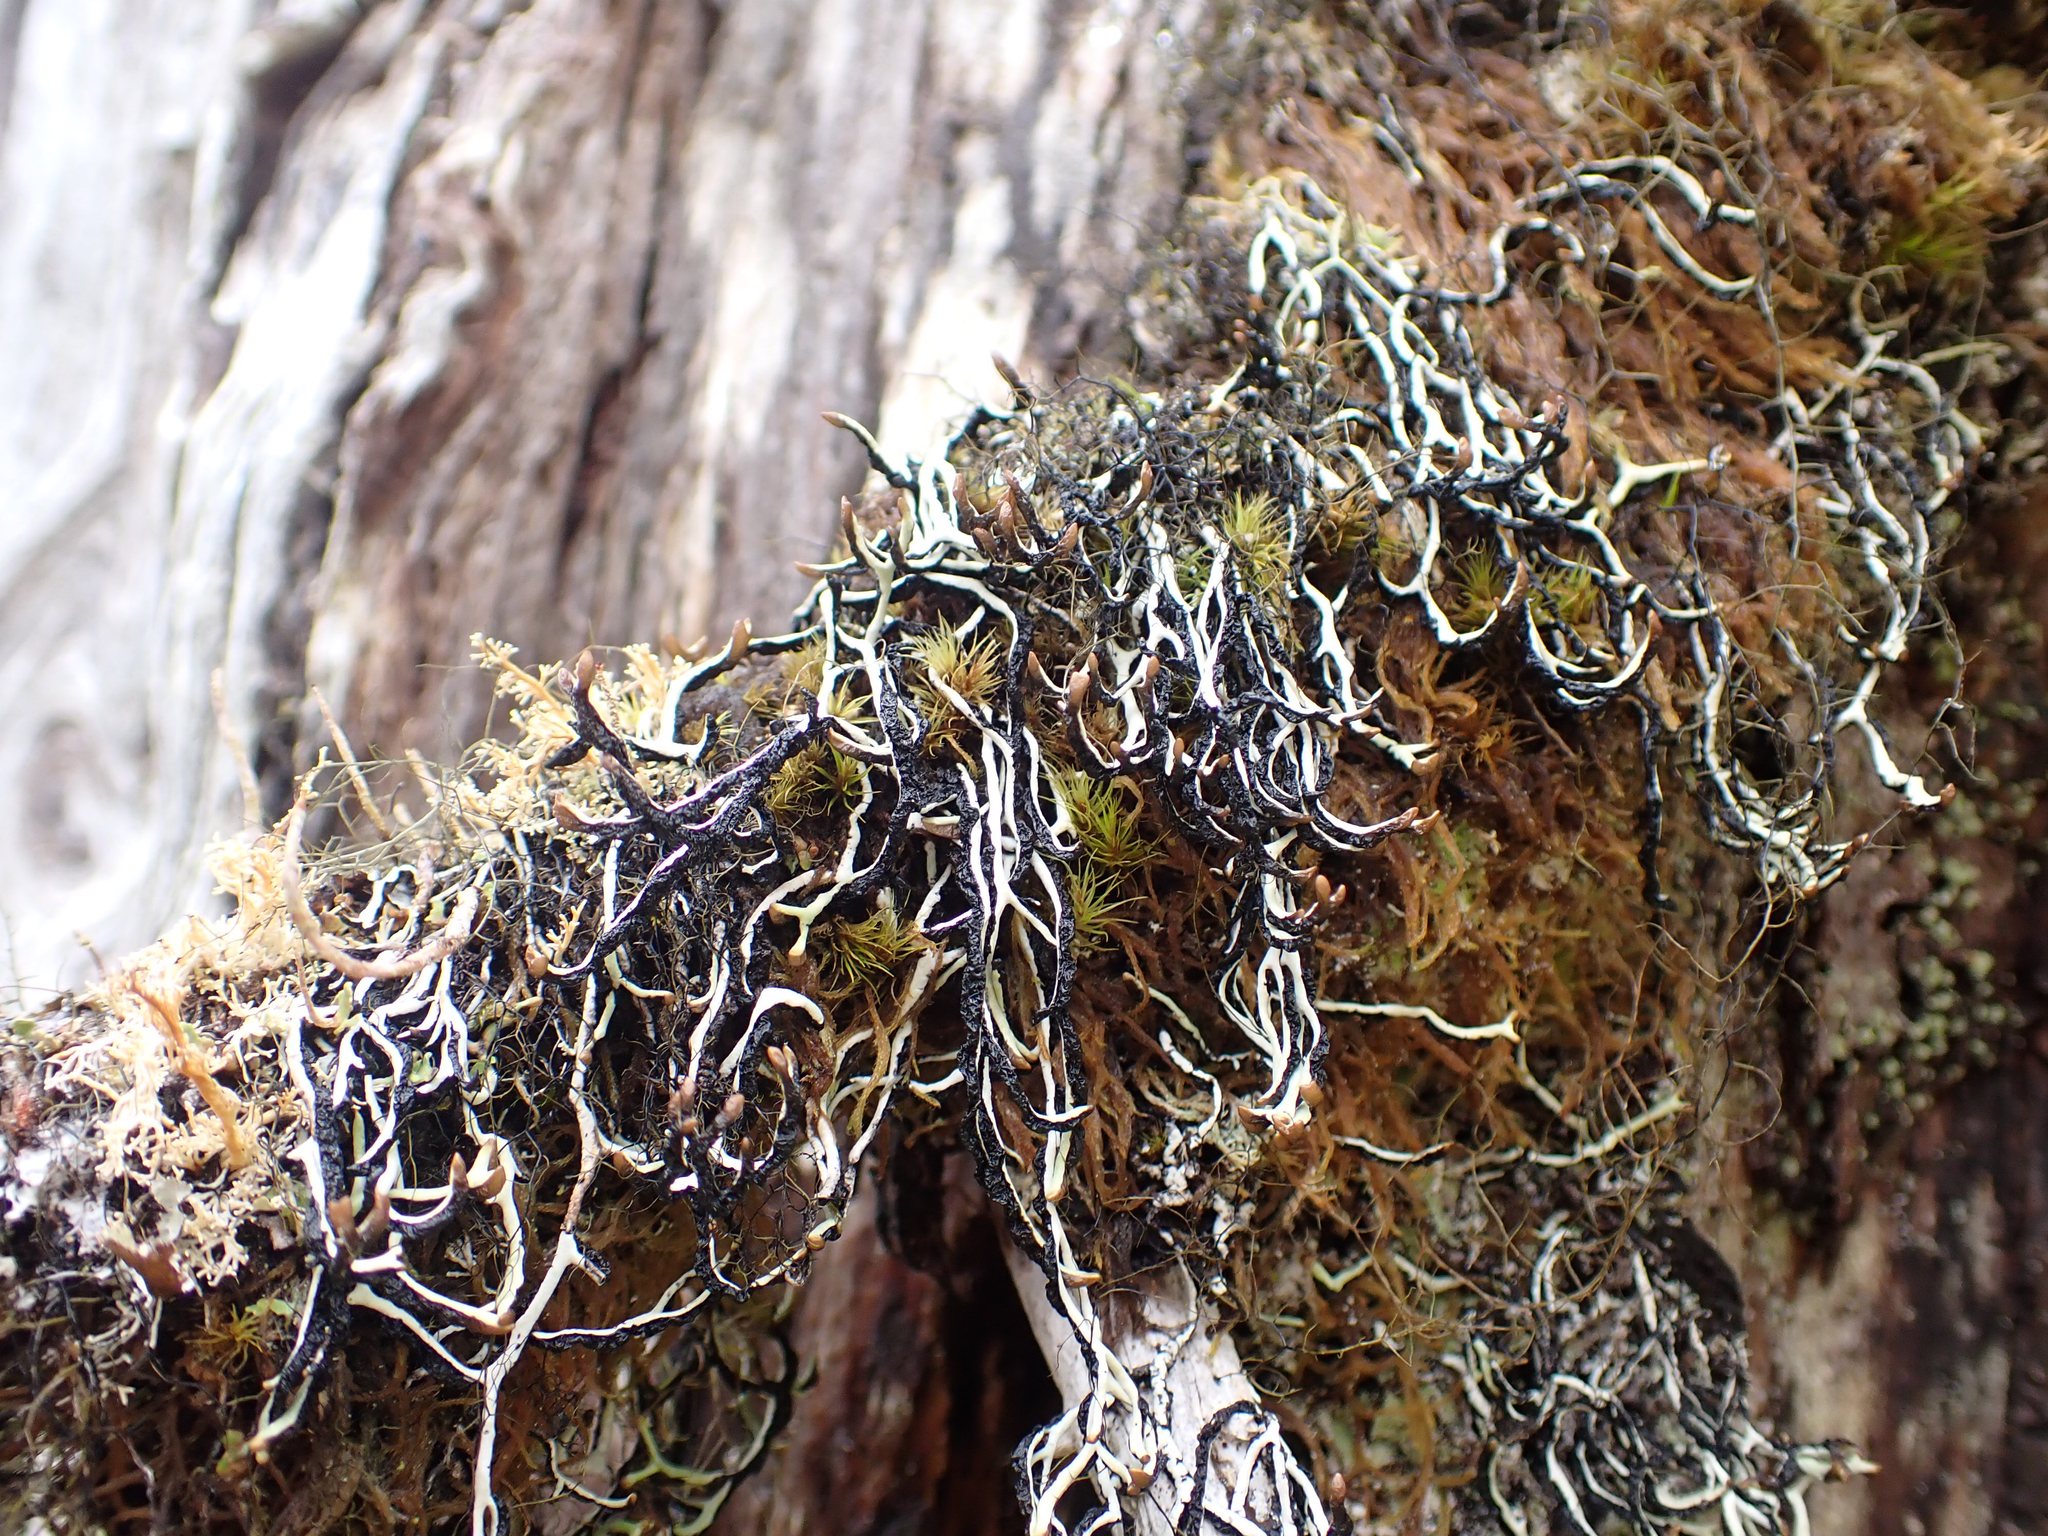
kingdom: Fungi
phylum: Ascomycota
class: Lecanoromycetes
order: Lecanorales
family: Parmeliaceae
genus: Hypogymnia
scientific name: Hypogymnia duplicata
